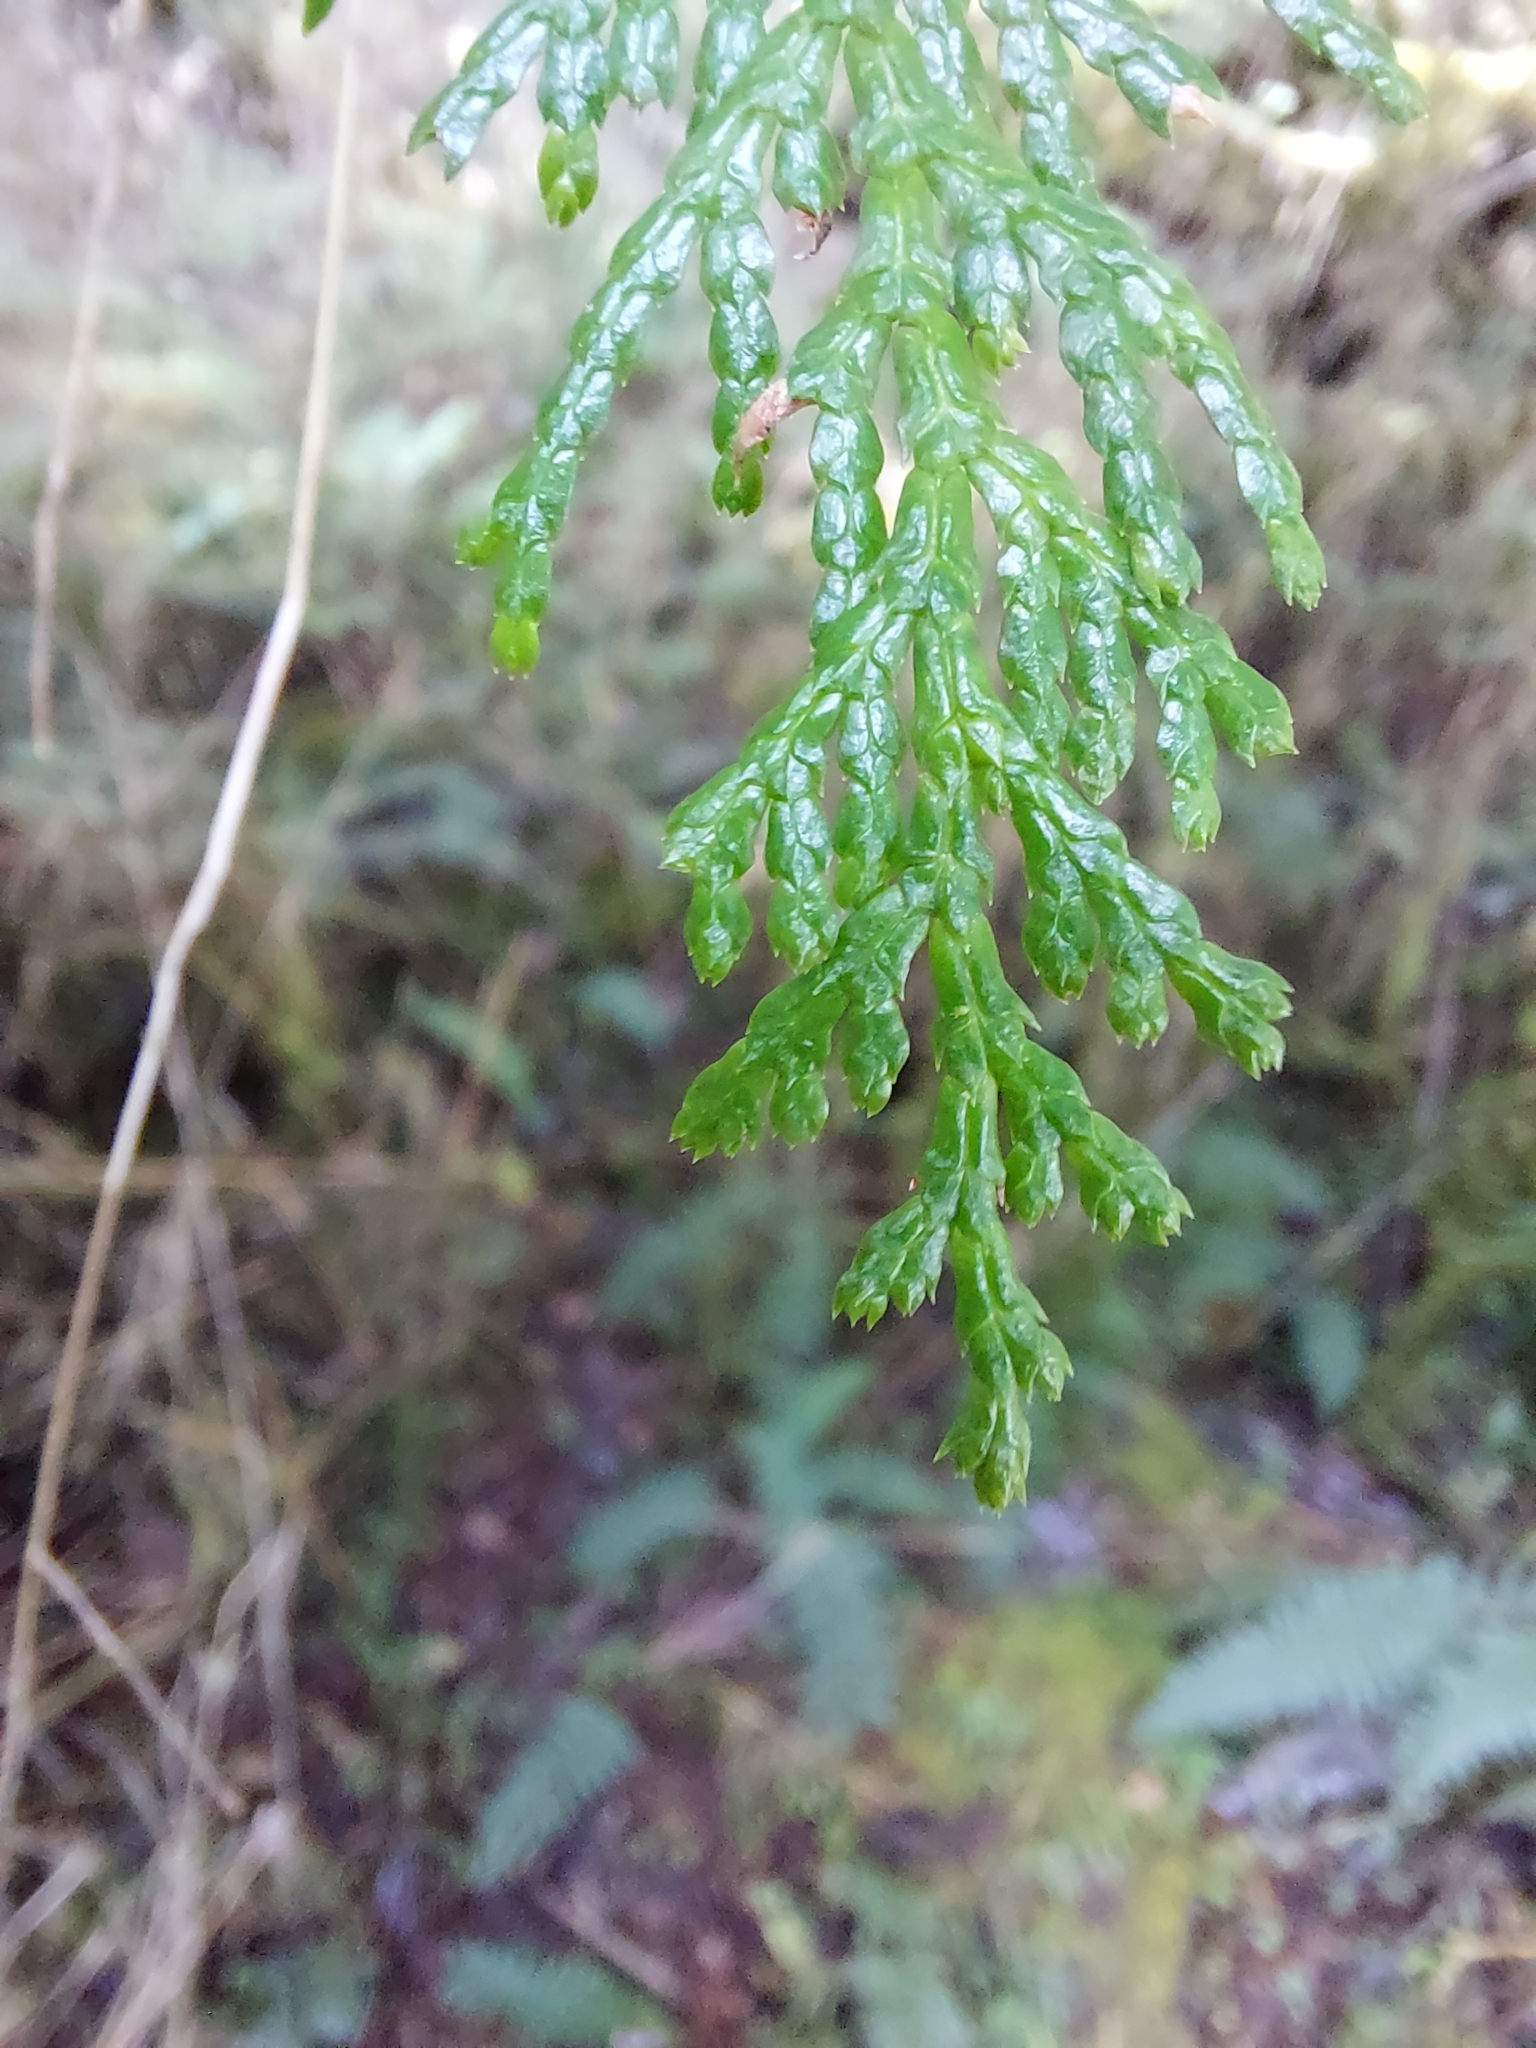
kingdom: Plantae
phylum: Tracheophyta
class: Pinopsida
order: Pinales
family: Cupressaceae
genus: Chamaecyparis
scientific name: Chamaecyparis formosensis
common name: Formosan cypress
